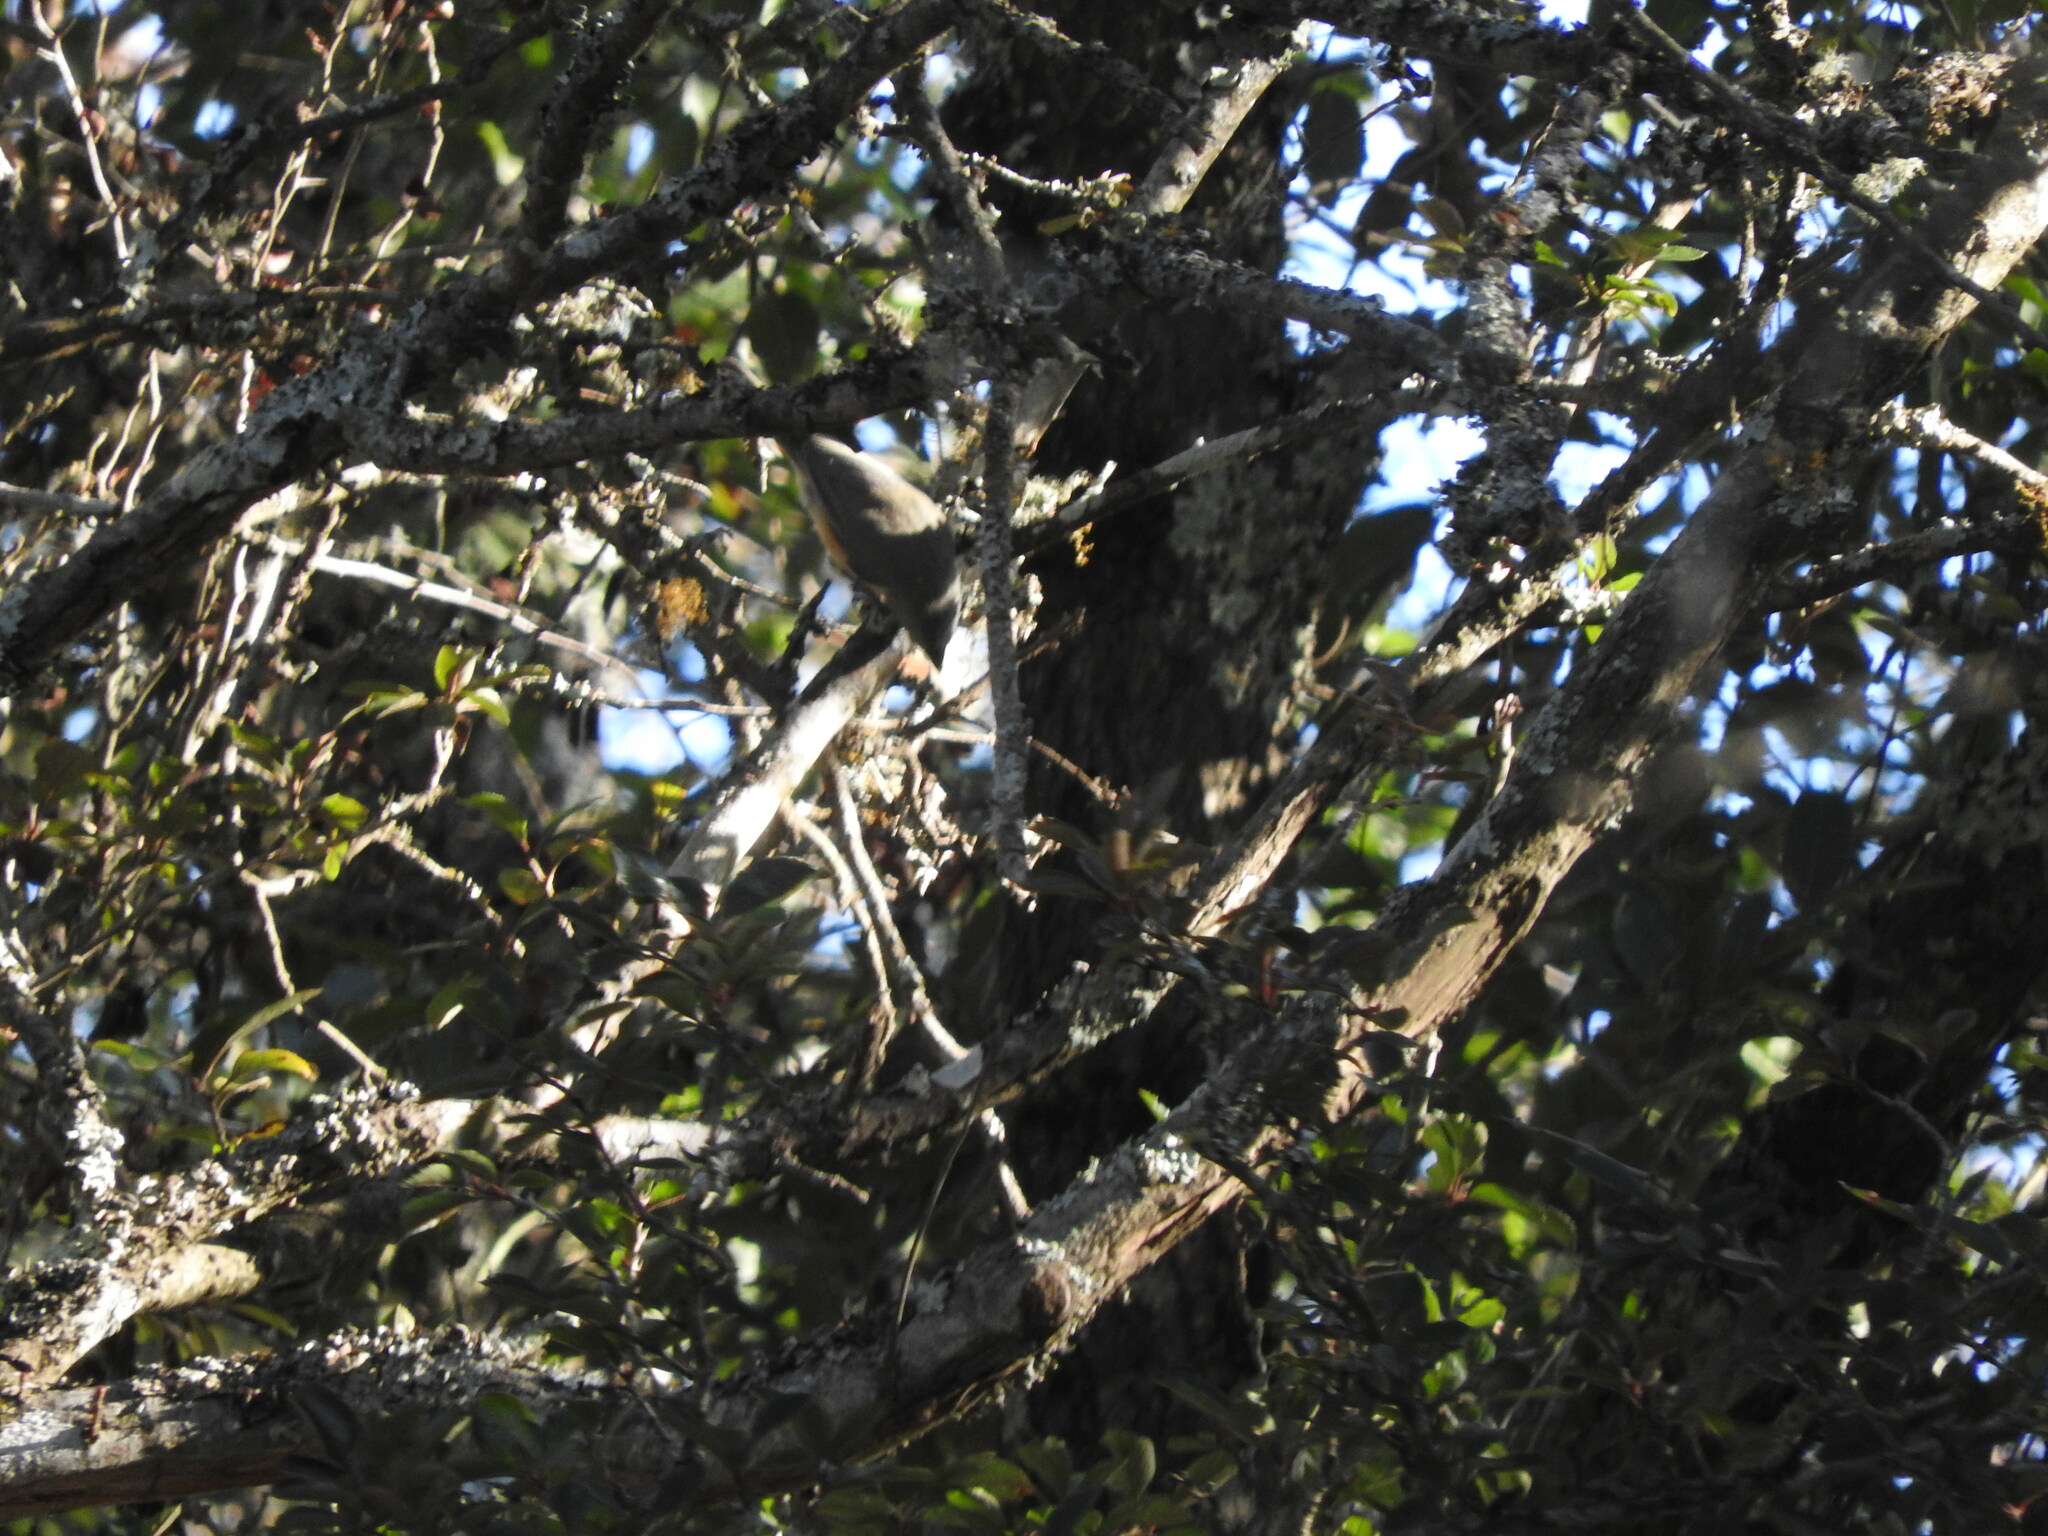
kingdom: Animalia
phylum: Chordata
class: Aves
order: Passeriformes
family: Paridae
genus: Baeolophus
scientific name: Baeolophus atricristatus
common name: Black-crested titmouse
